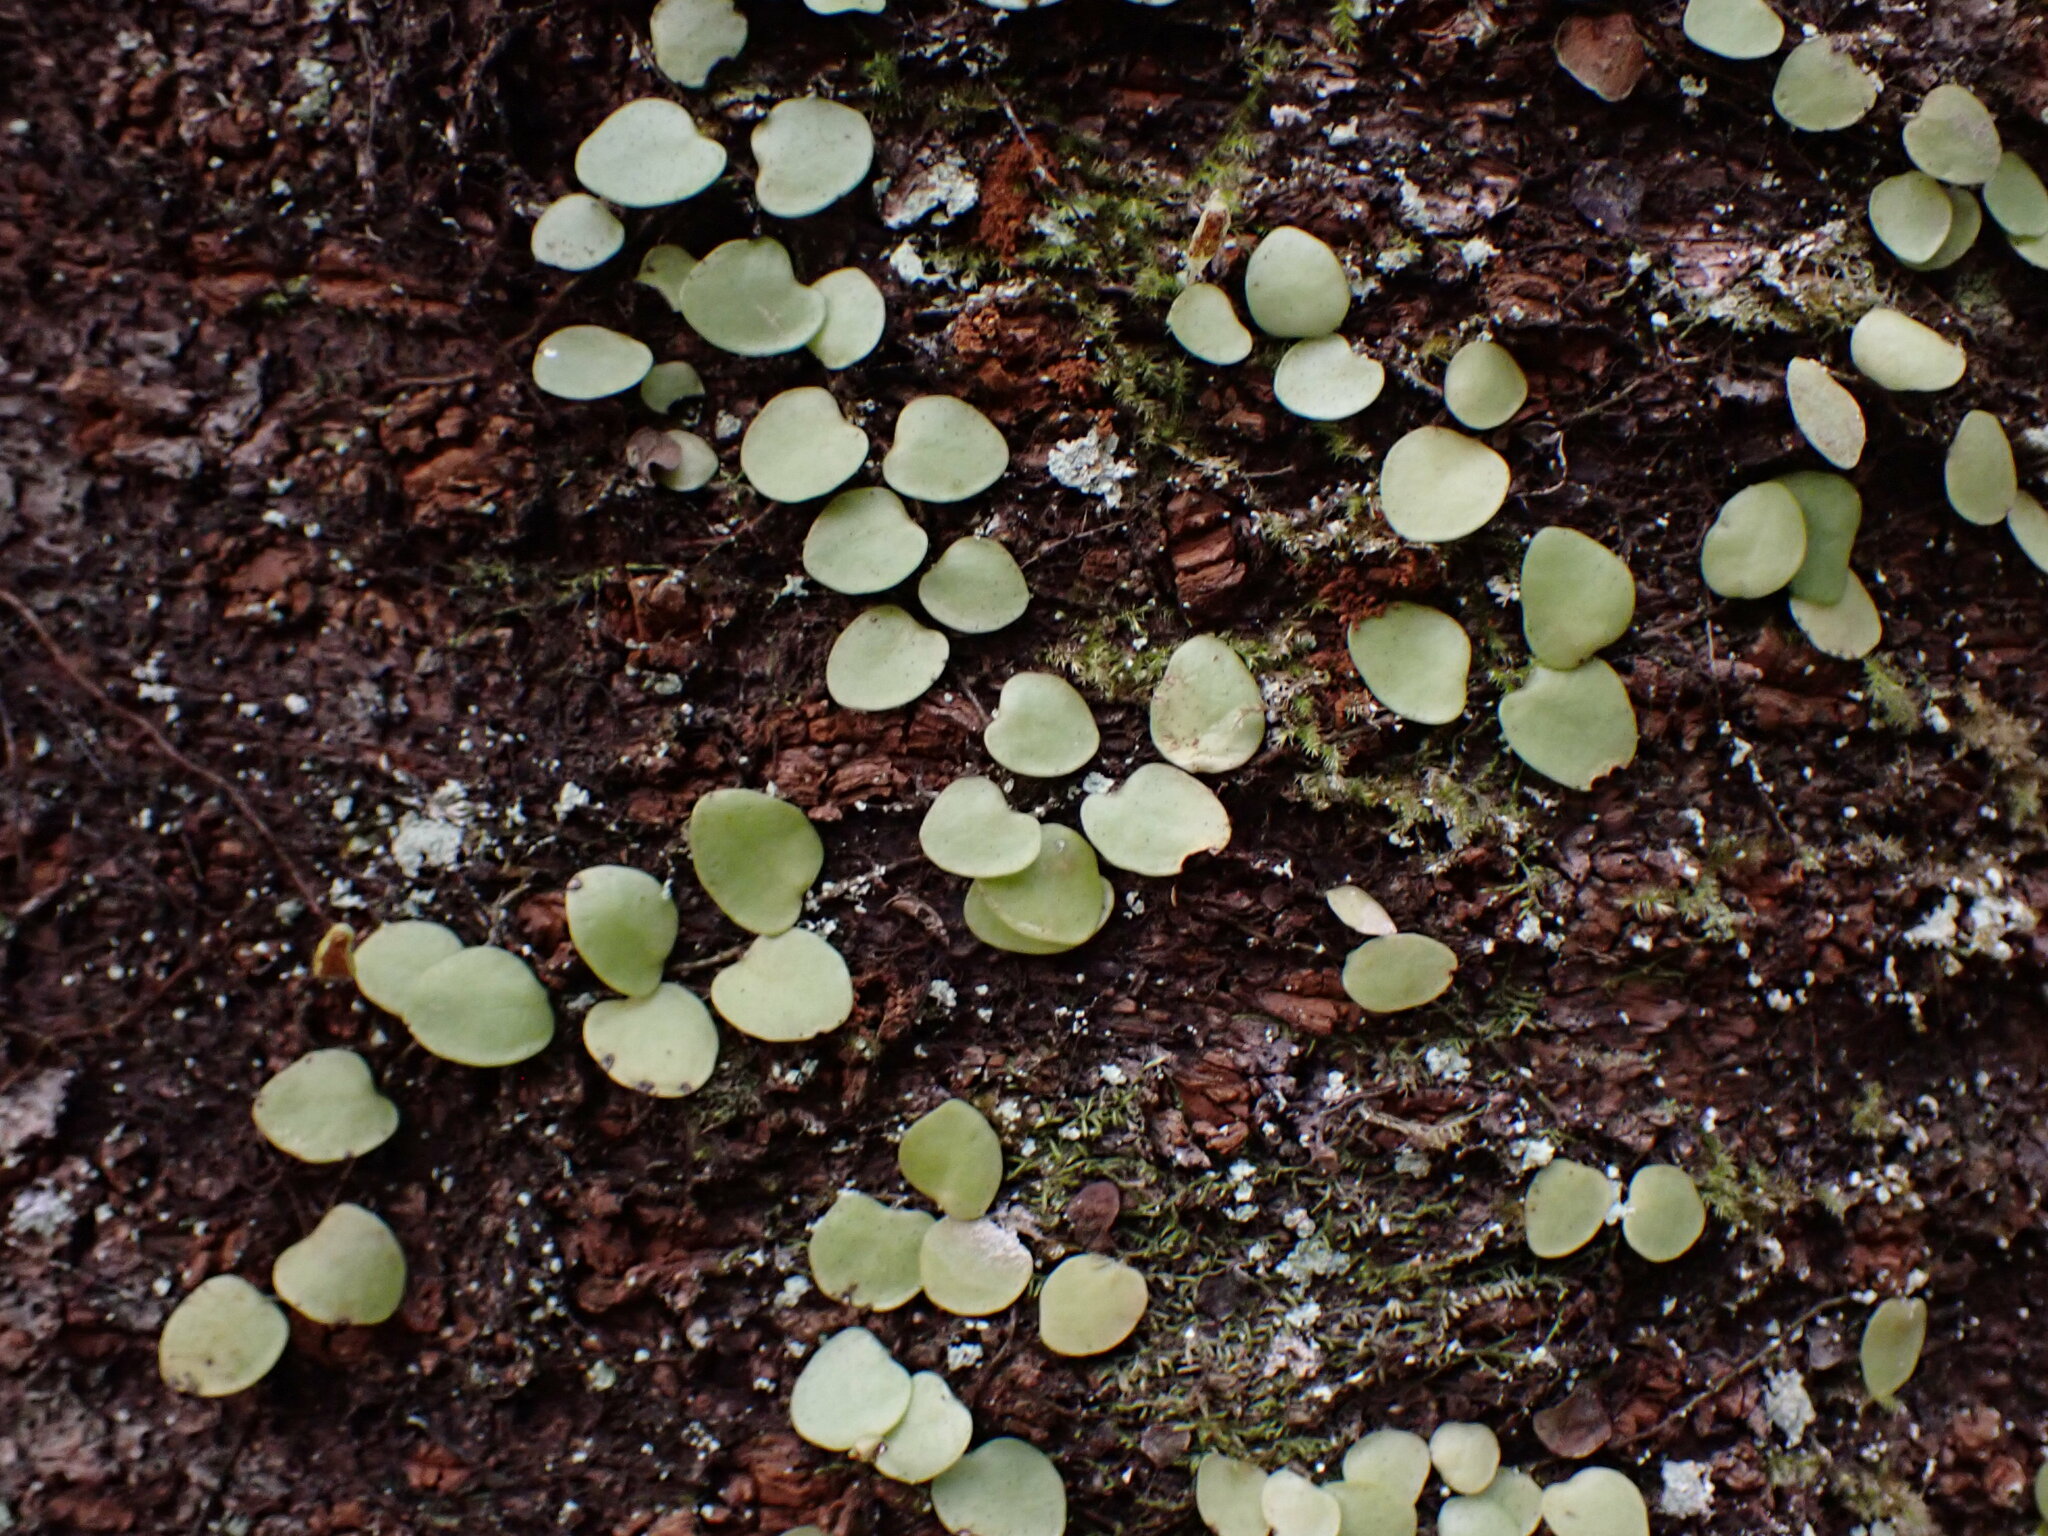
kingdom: Plantae
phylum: Tracheophyta
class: Polypodiopsida
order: Polypodiales
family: Polypodiaceae
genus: Lepisorus
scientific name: Lepisorus microphyllus
